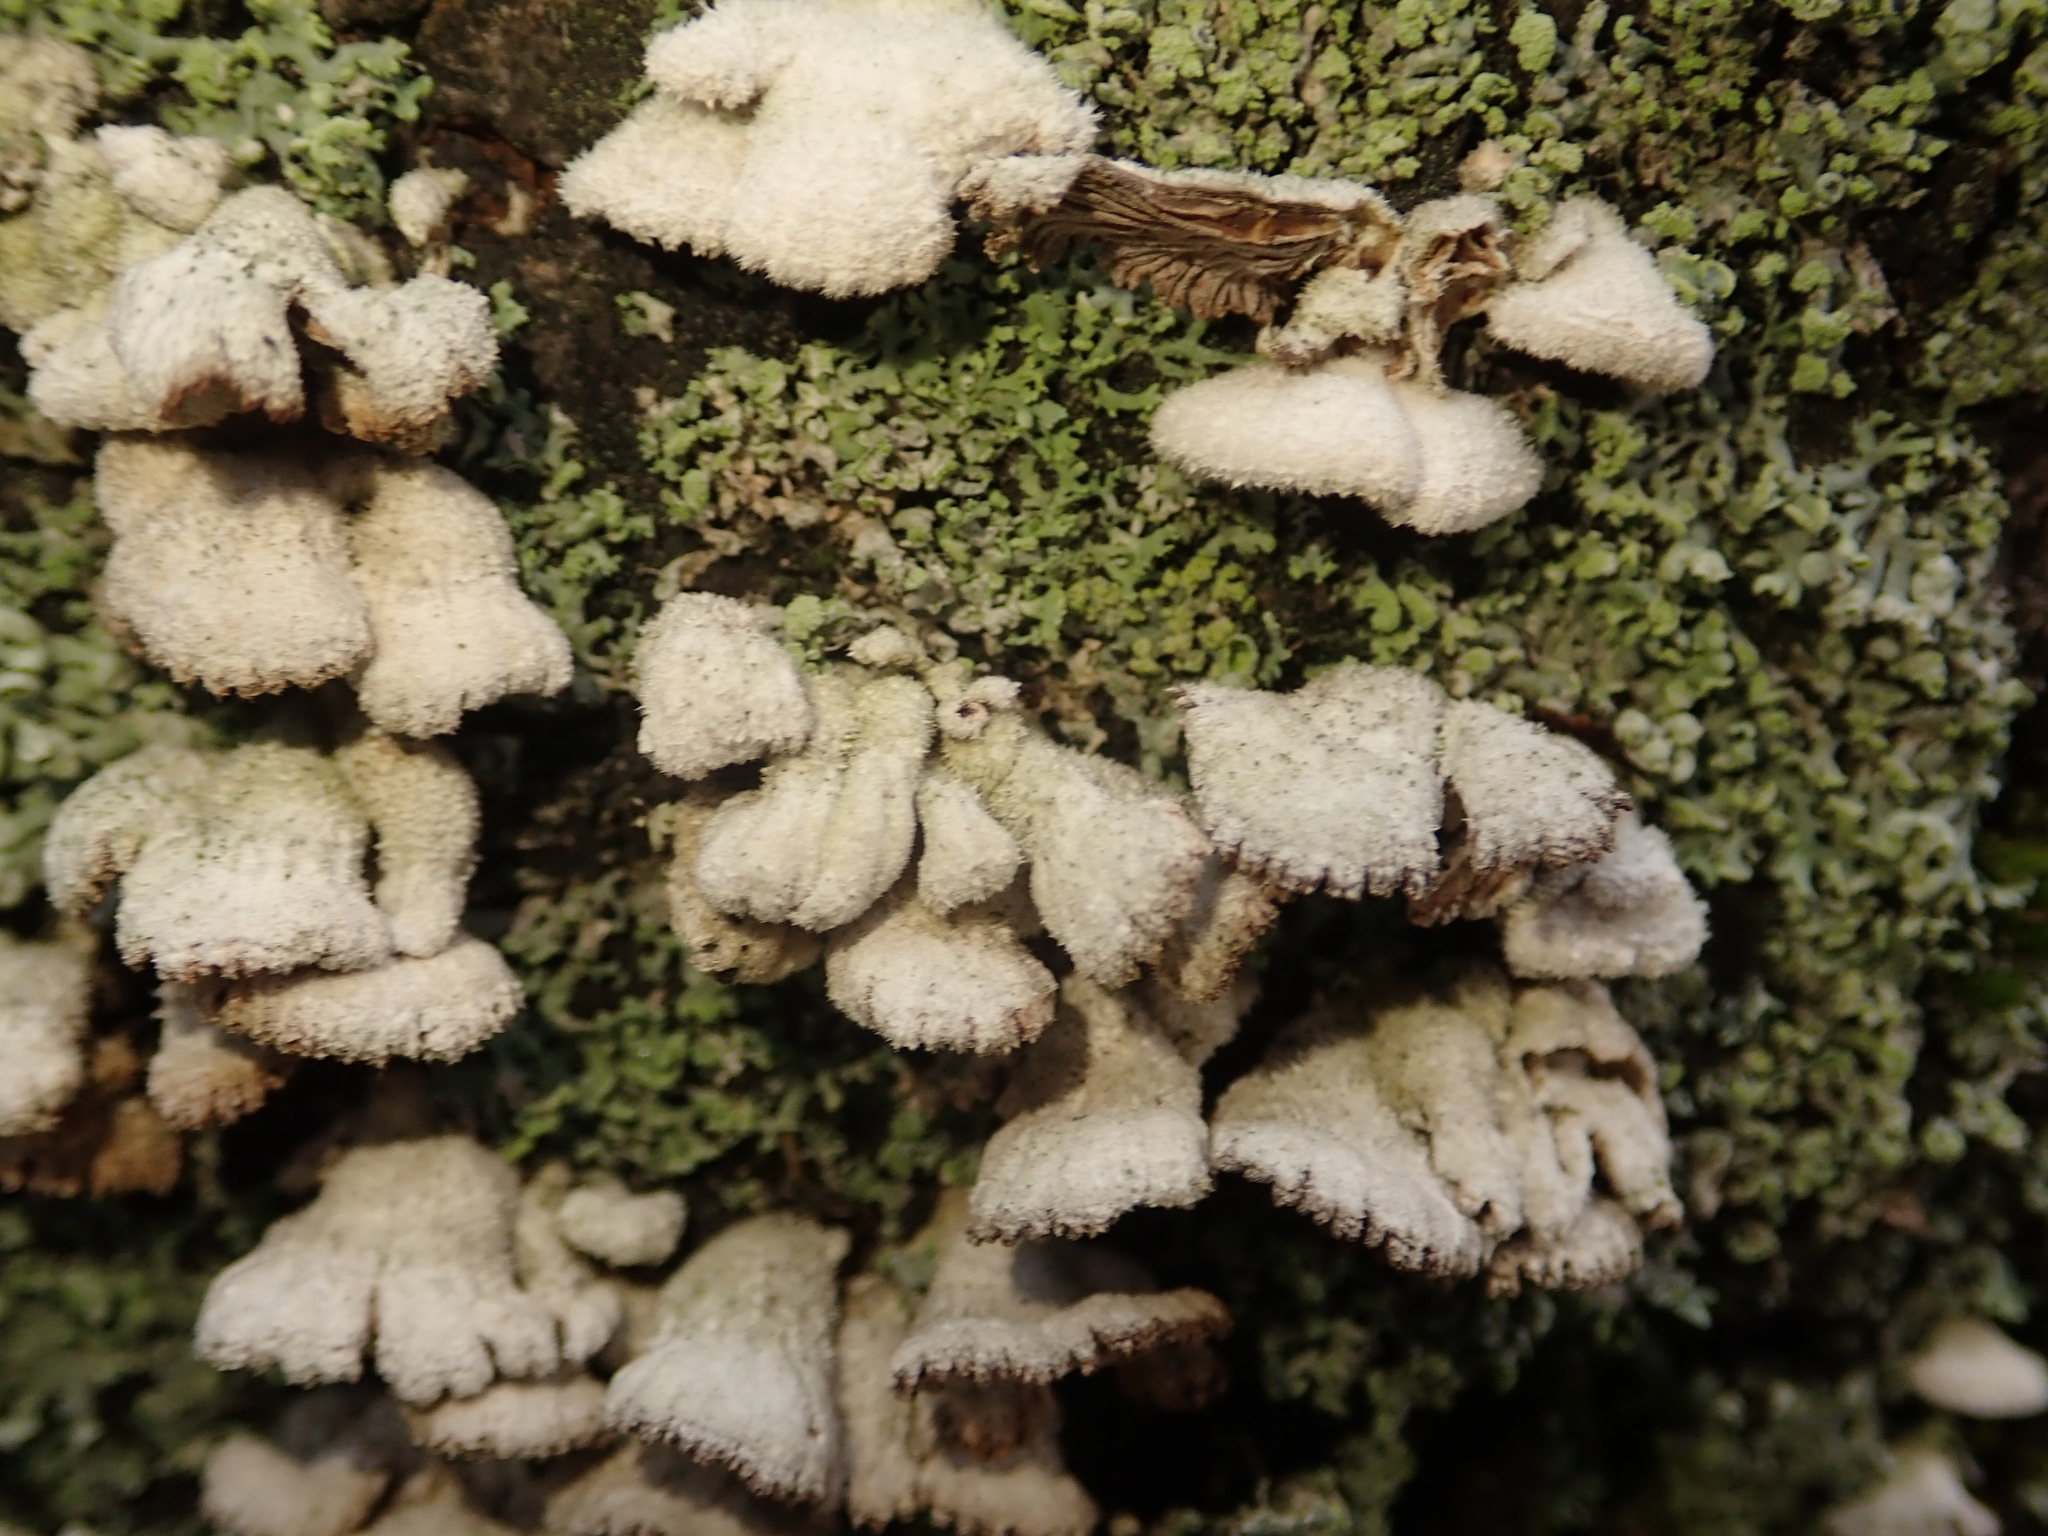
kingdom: Fungi
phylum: Basidiomycota
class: Agaricomycetes
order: Agaricales
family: Schizophyllaceae
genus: Schizophyllum
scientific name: Schizophyllum commune
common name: Common porecrust
